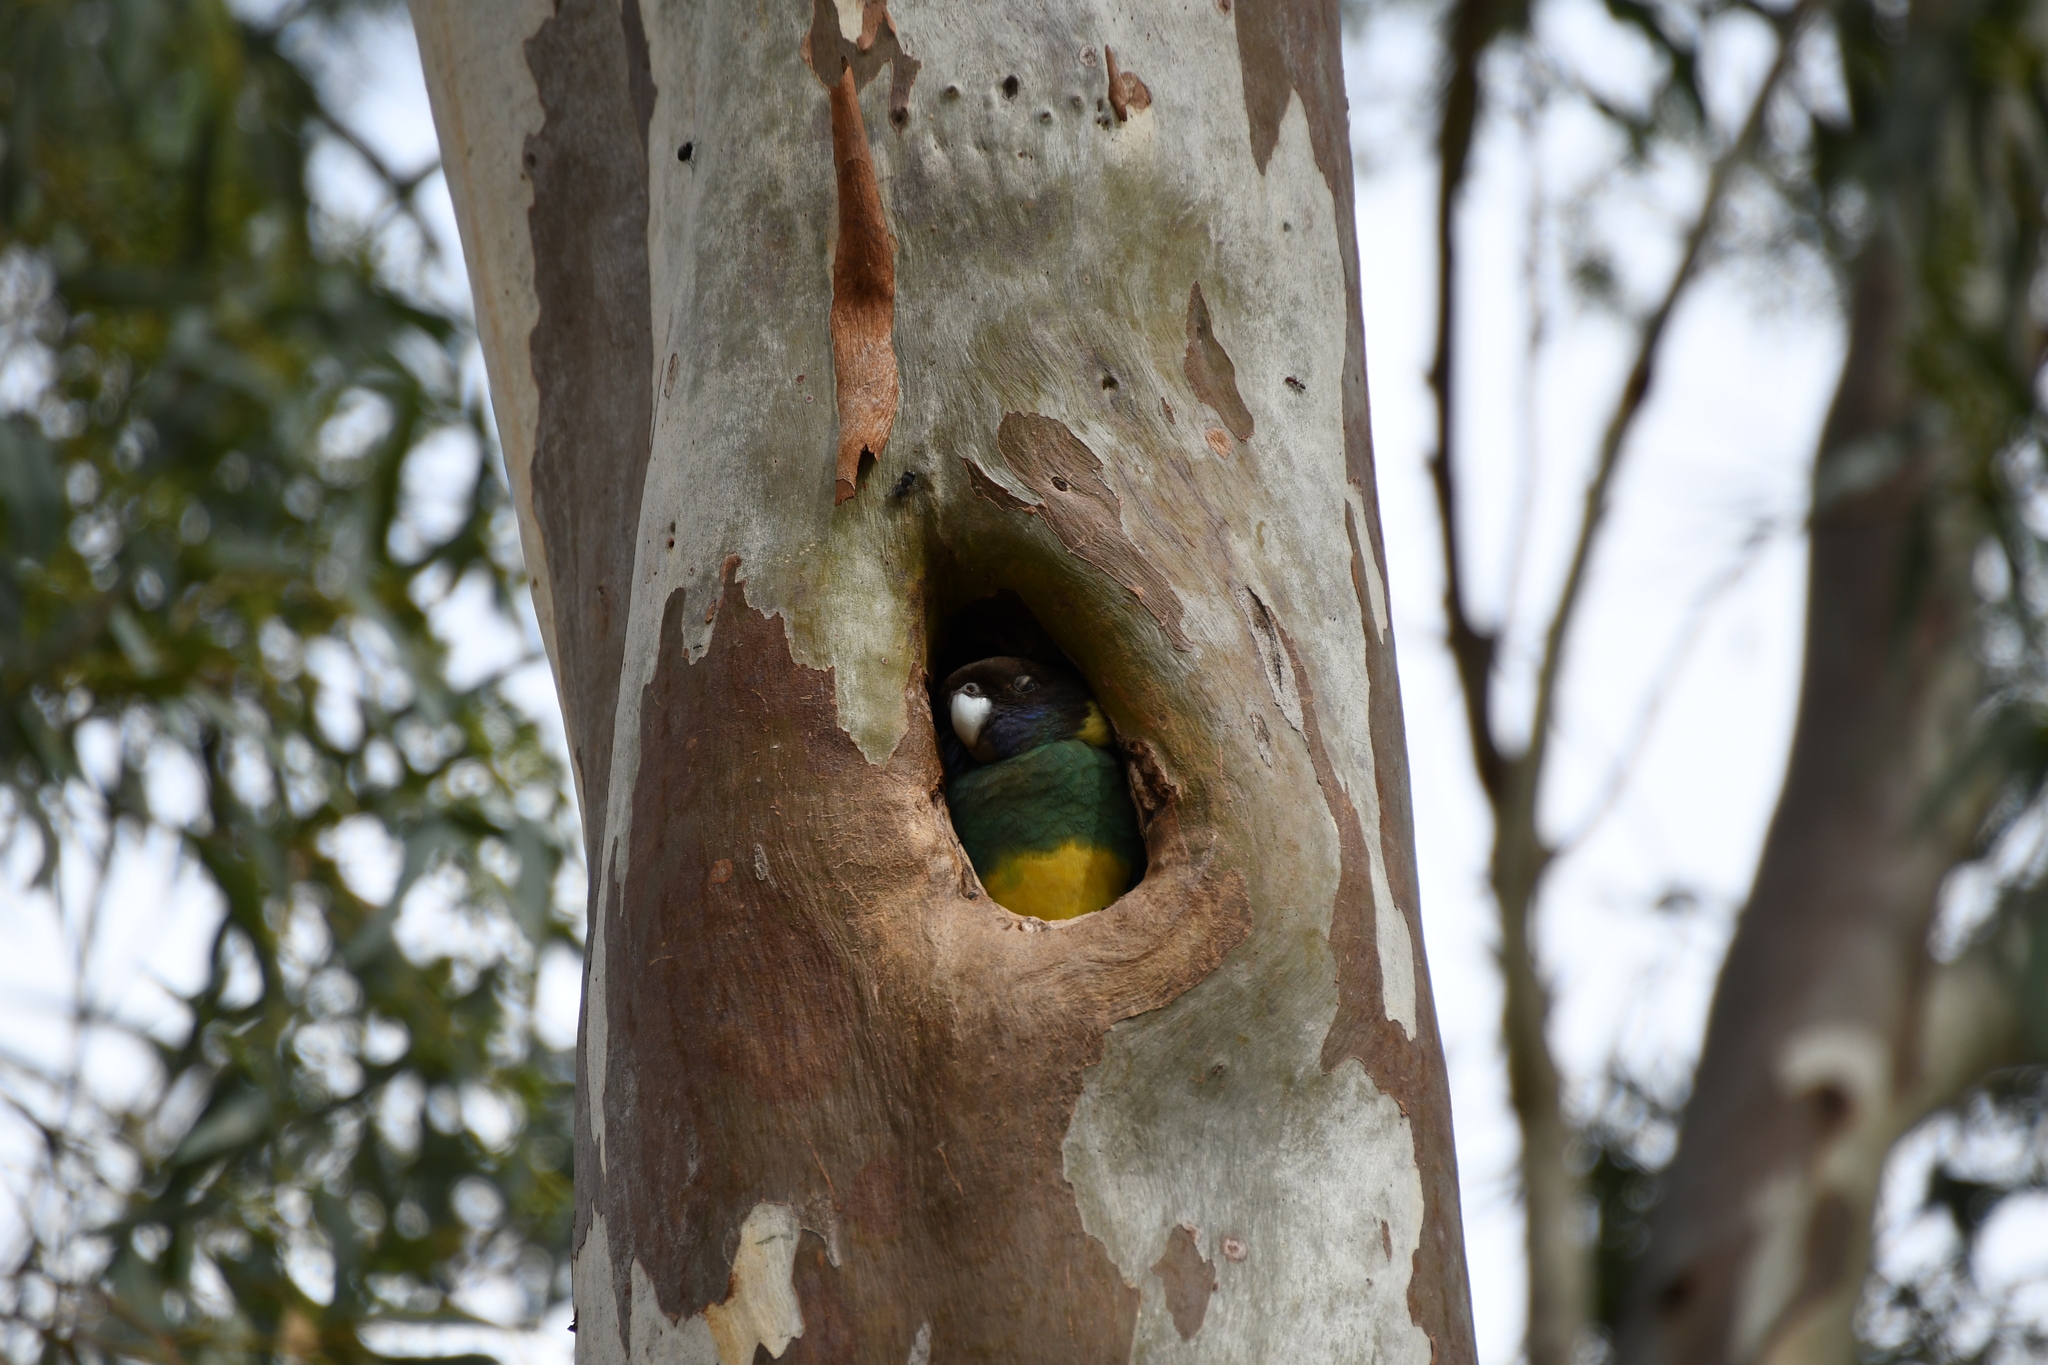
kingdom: Animalia
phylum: Chordata
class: Aves
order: Psittaciformes
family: Psittacidae
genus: Barnardius
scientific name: Barnardius zonarius
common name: Australian ringneck
